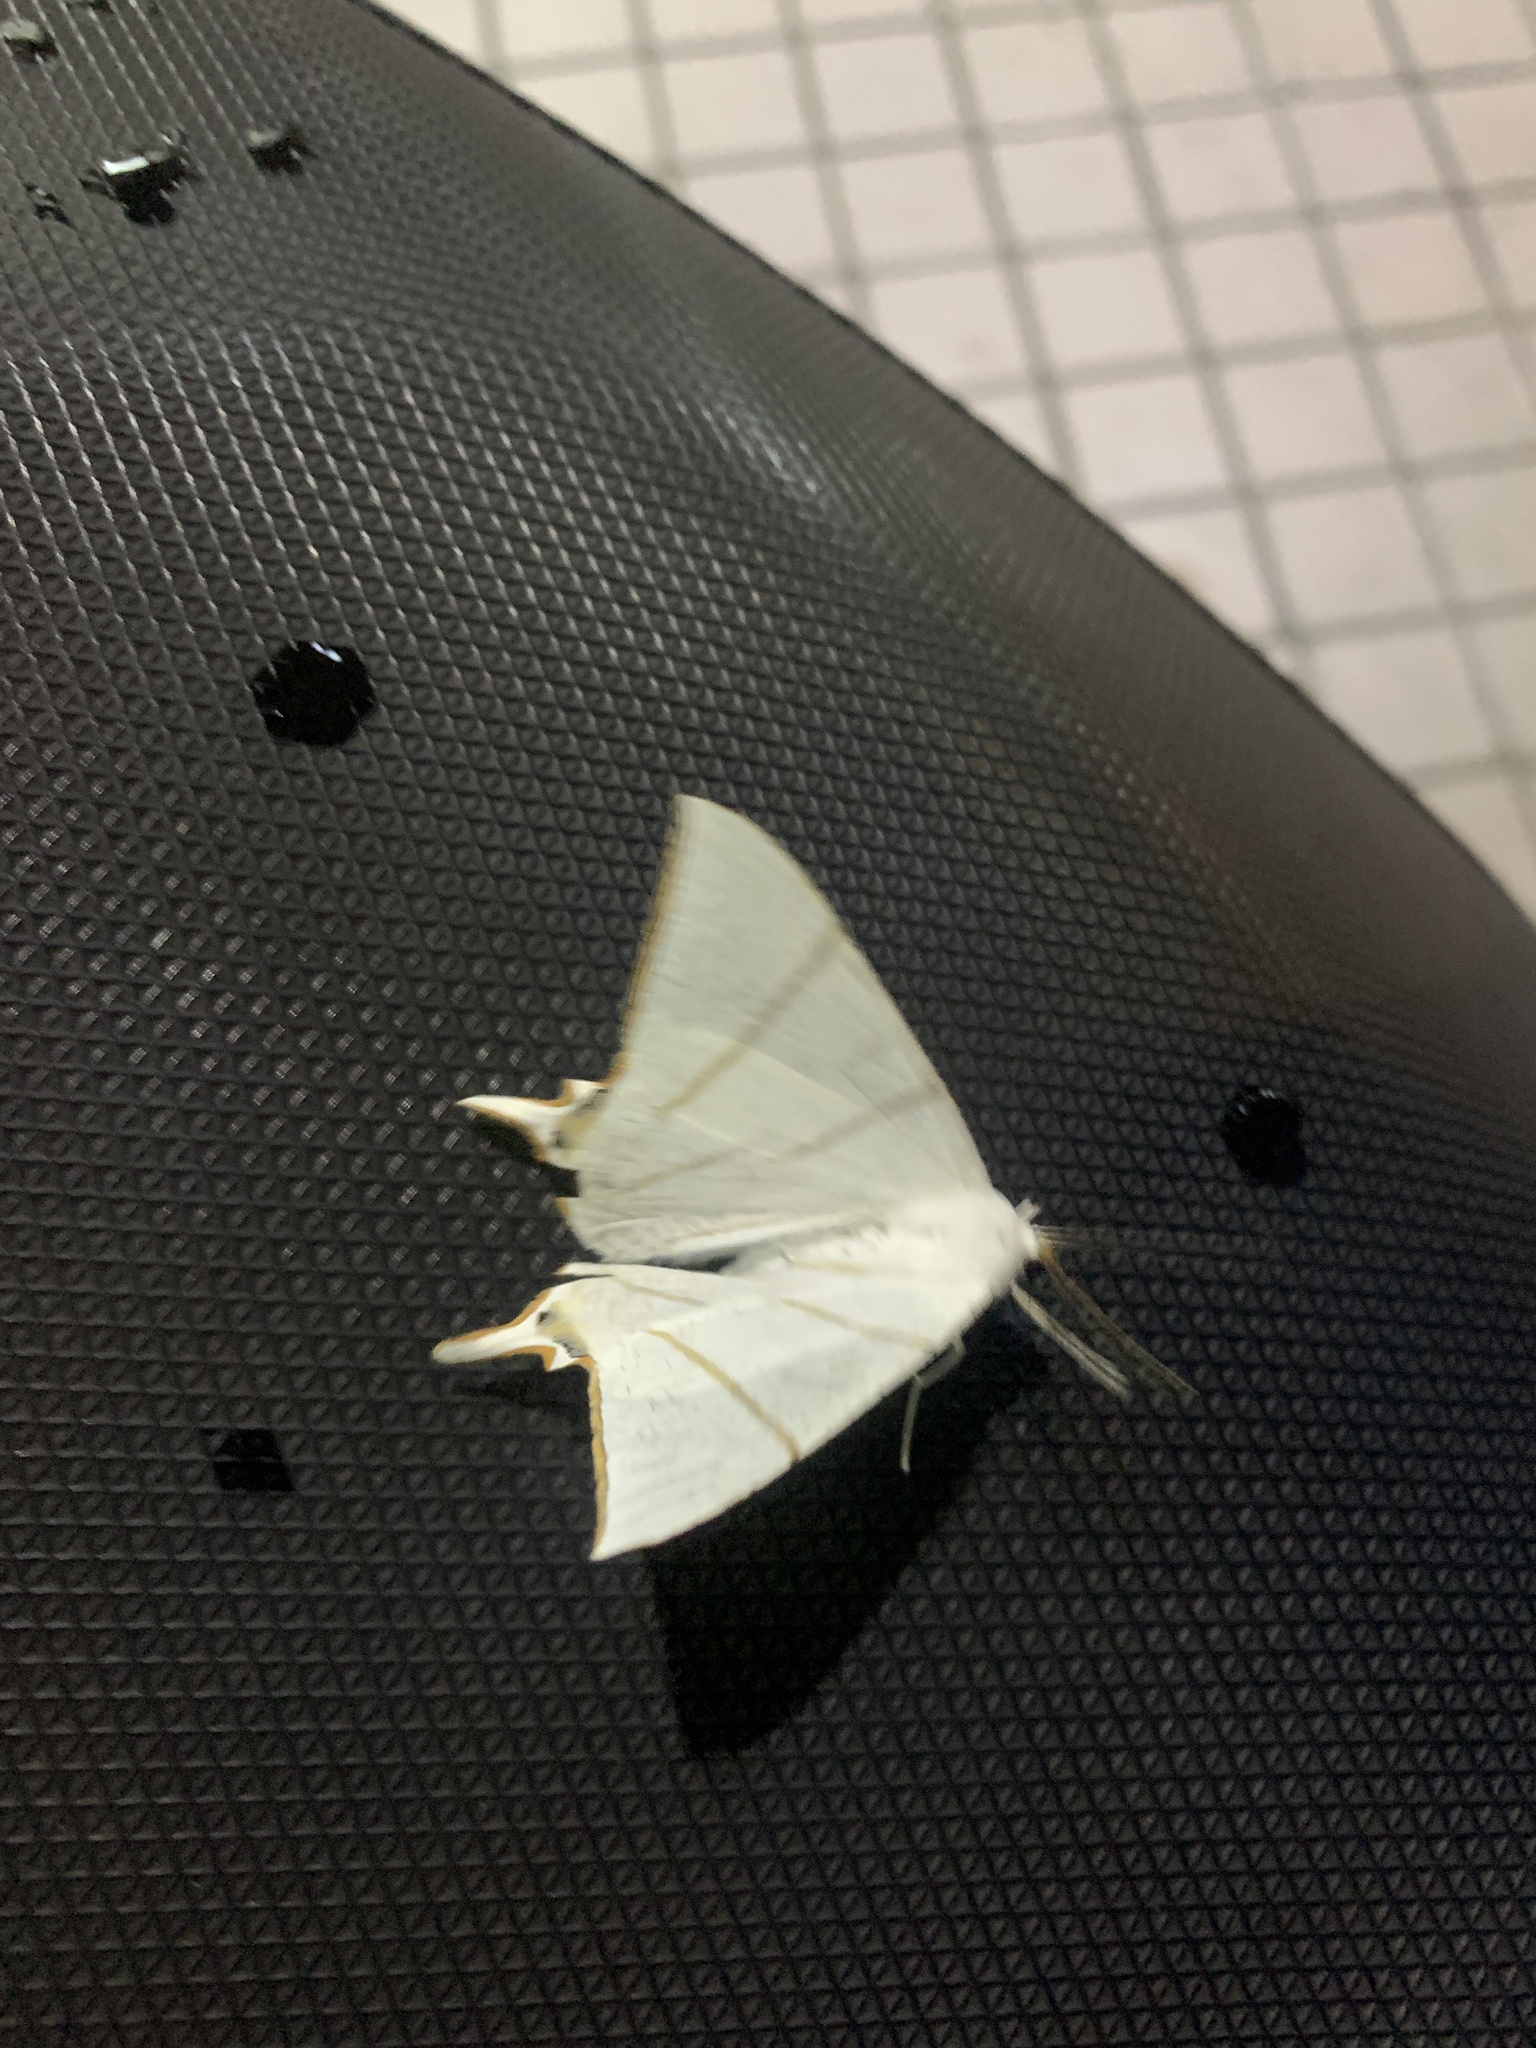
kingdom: Animalia
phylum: Arthropoda
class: Insecta
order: Lepidoptera
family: Geometridae
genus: Ourapteryx
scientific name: Ourapteryx clara
